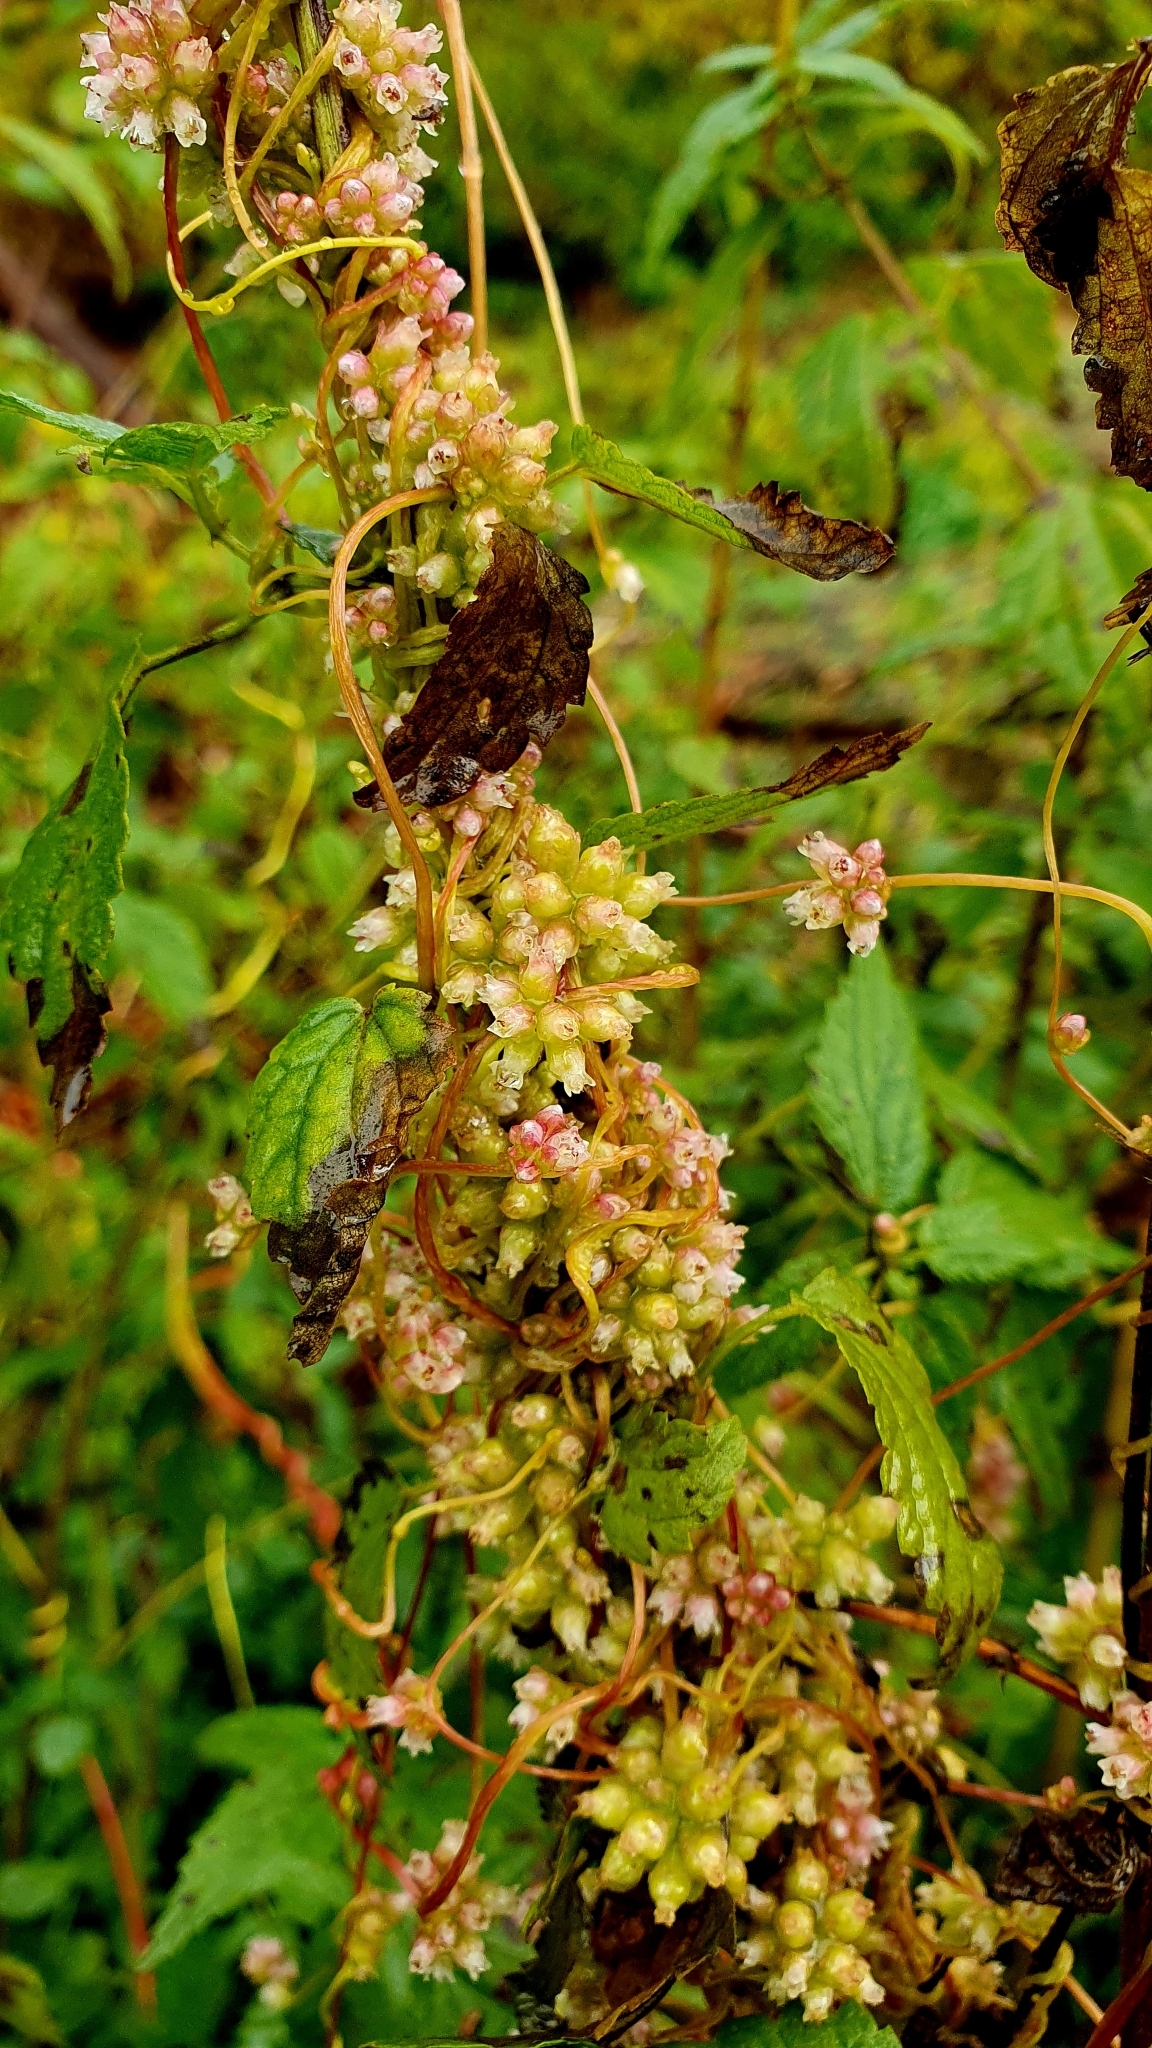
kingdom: Plantae
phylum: Tracheophyta
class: Magnoliopsida
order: Solanales
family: Convolvulaceae
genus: Cuscuta
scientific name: Cuscuta europaea
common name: Greater dodder
